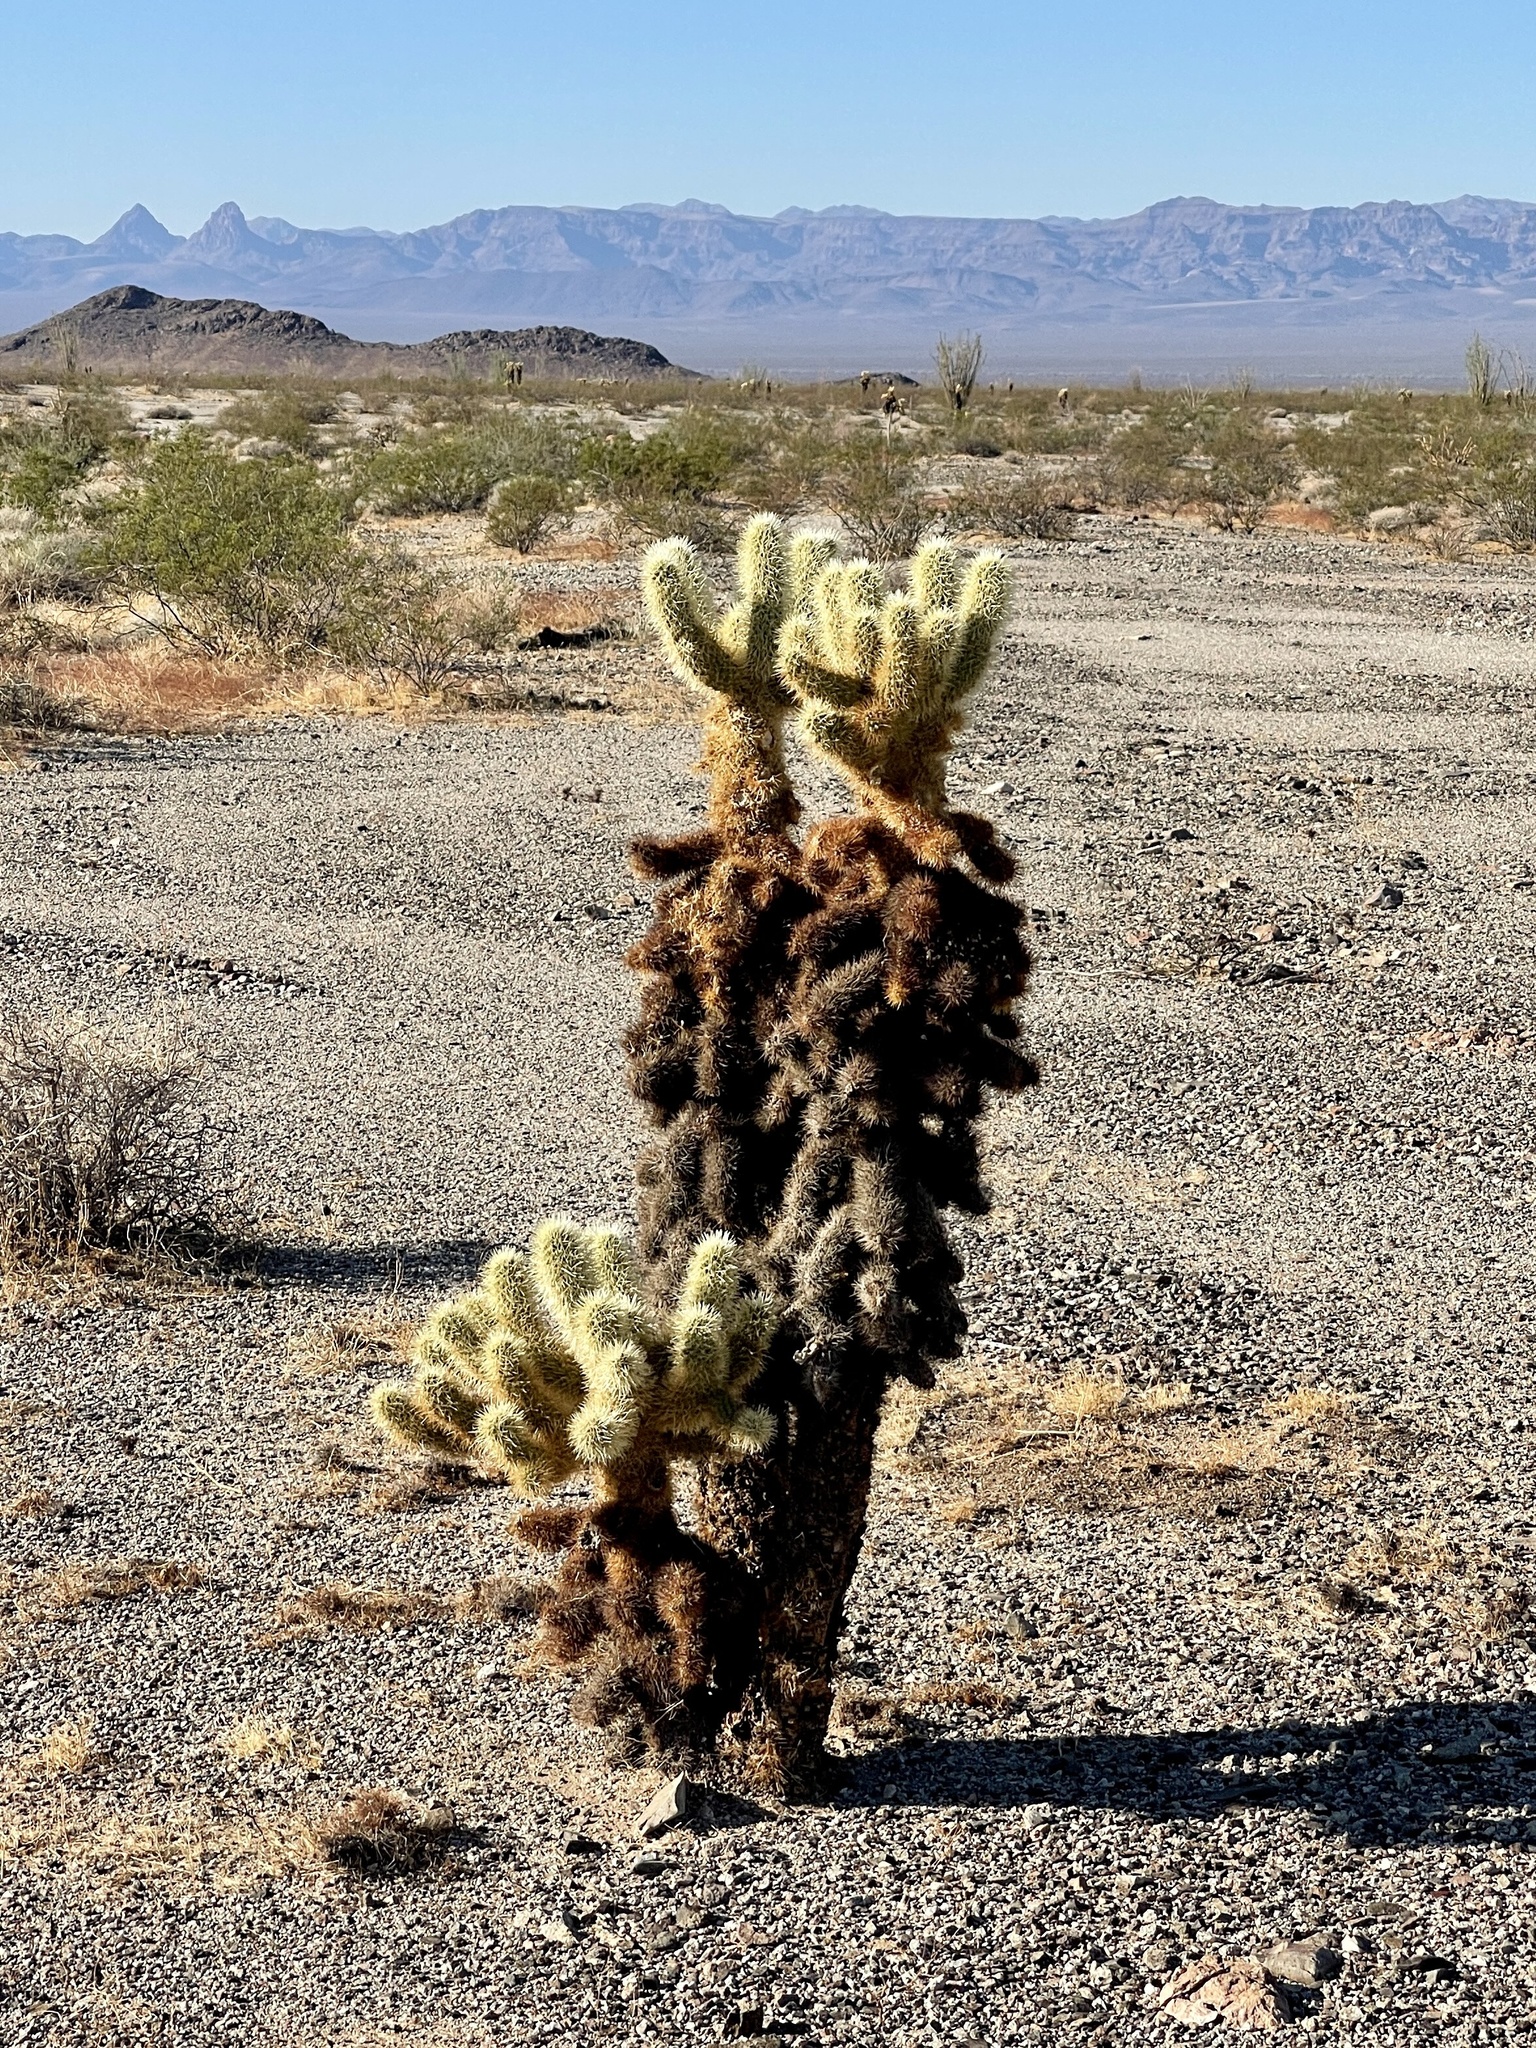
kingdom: Plantae
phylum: Tracheophyta
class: Magnoliopsida
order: Caryophyllales
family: Cactaceae
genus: Cylindropuntia
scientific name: Cylindropuntia fosbergii
